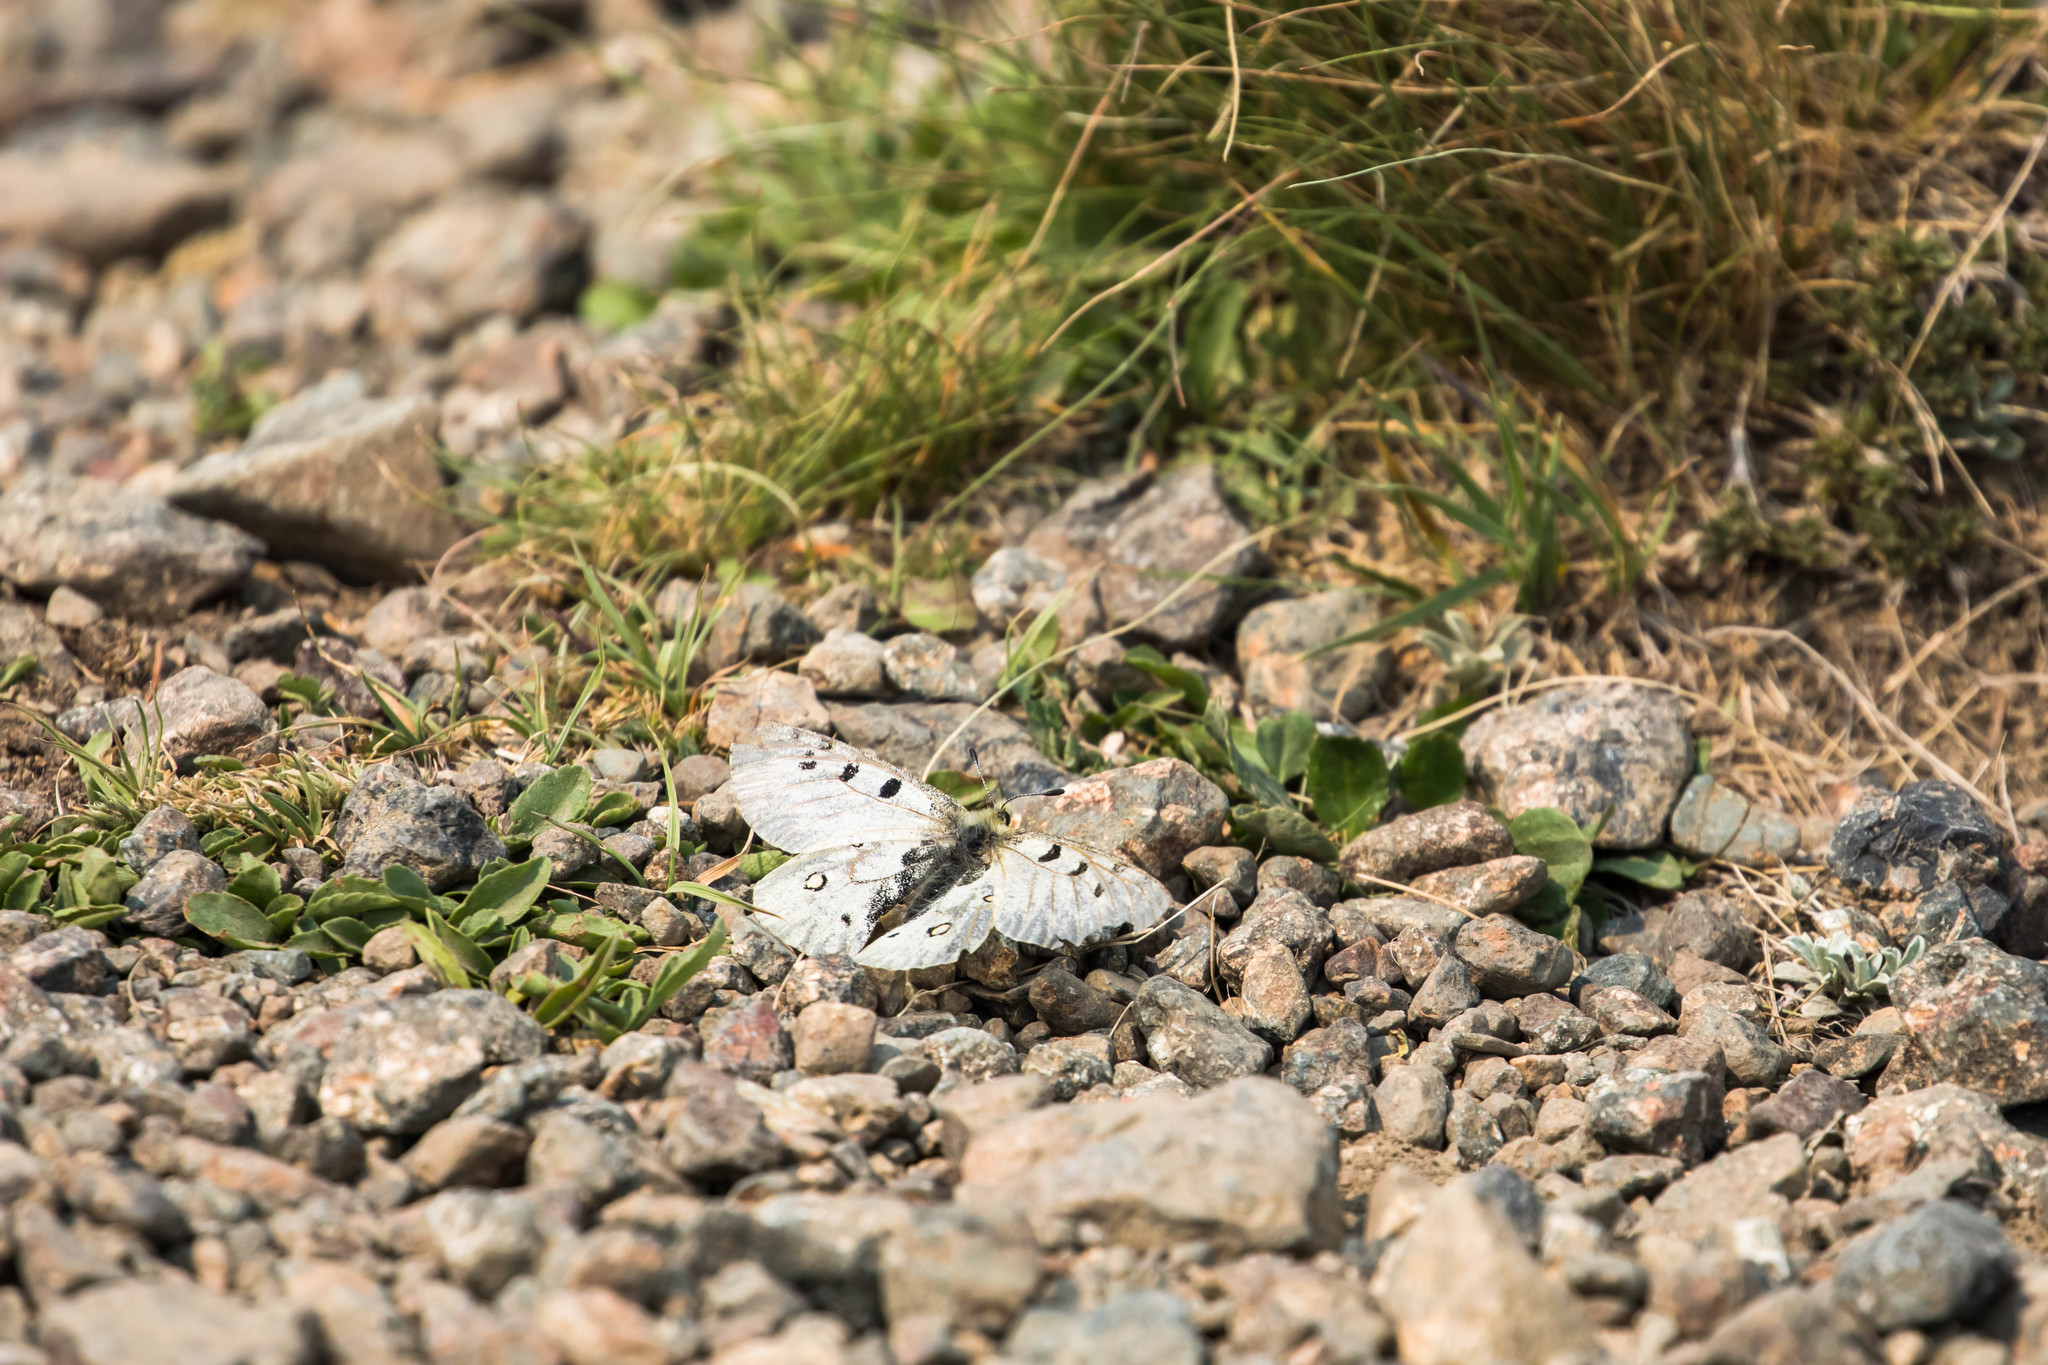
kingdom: Animalia
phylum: Arthropoda
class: Insecta
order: Lepidoptera
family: Papilionidae
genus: Parnassius
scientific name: Parnassius smintheus
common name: Mountain parnassian
